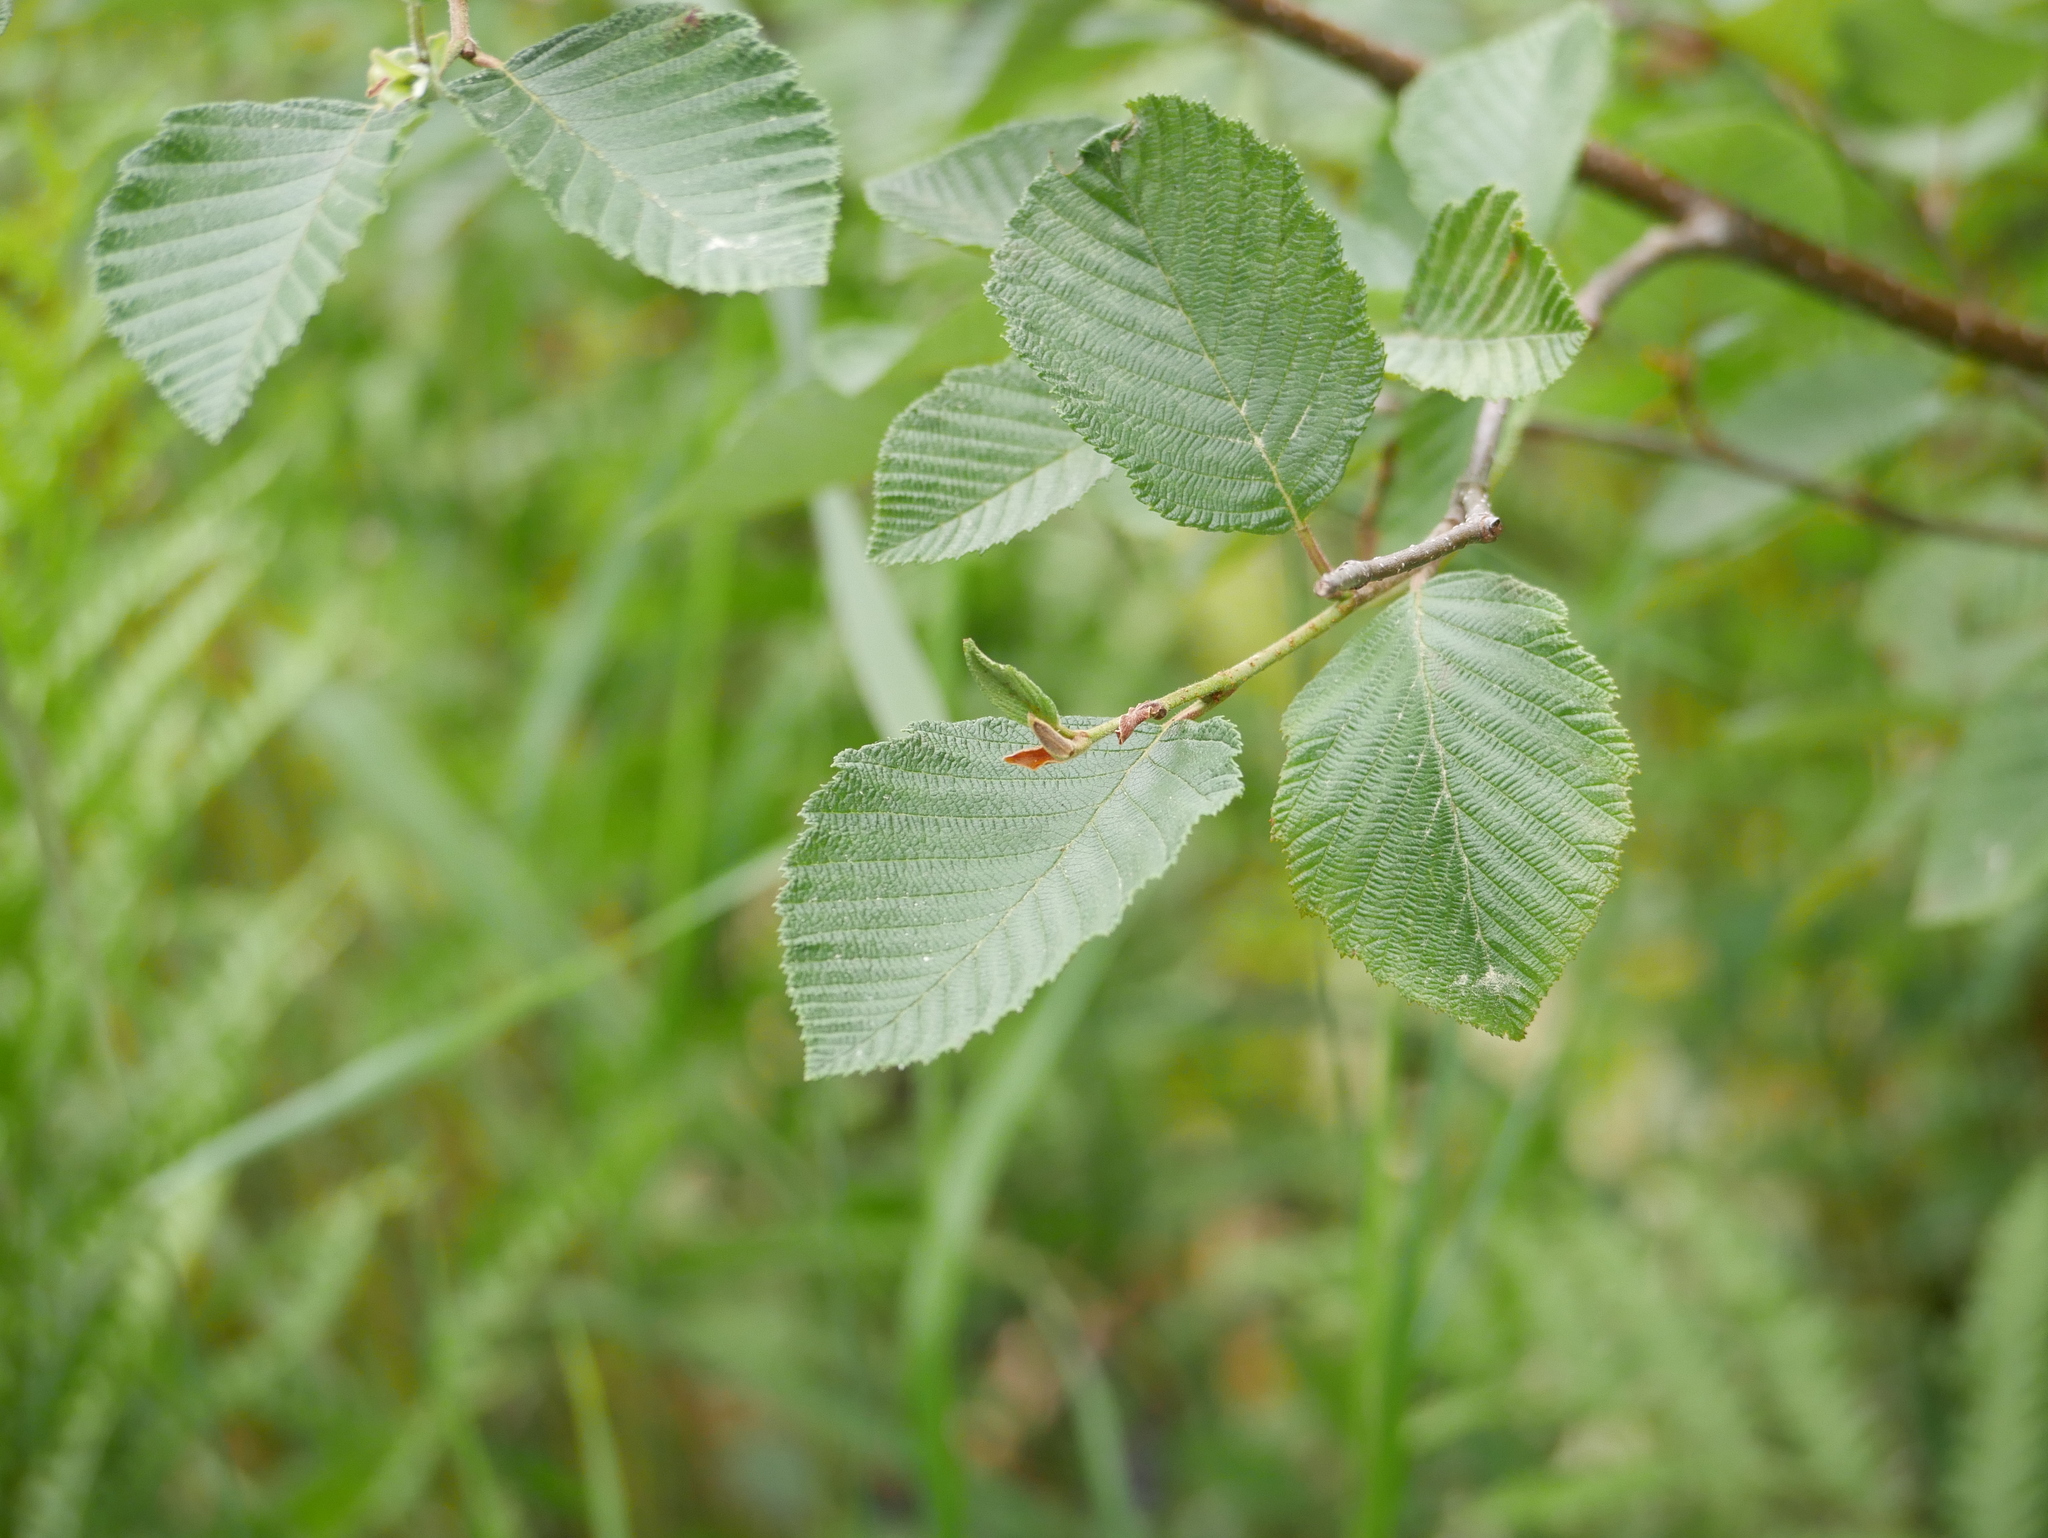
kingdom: Plantae
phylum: Tracheophyta
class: Magnoliopsida
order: Fagales
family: Betulaceae
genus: Alnus
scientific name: Alnus incana
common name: Grey alder
